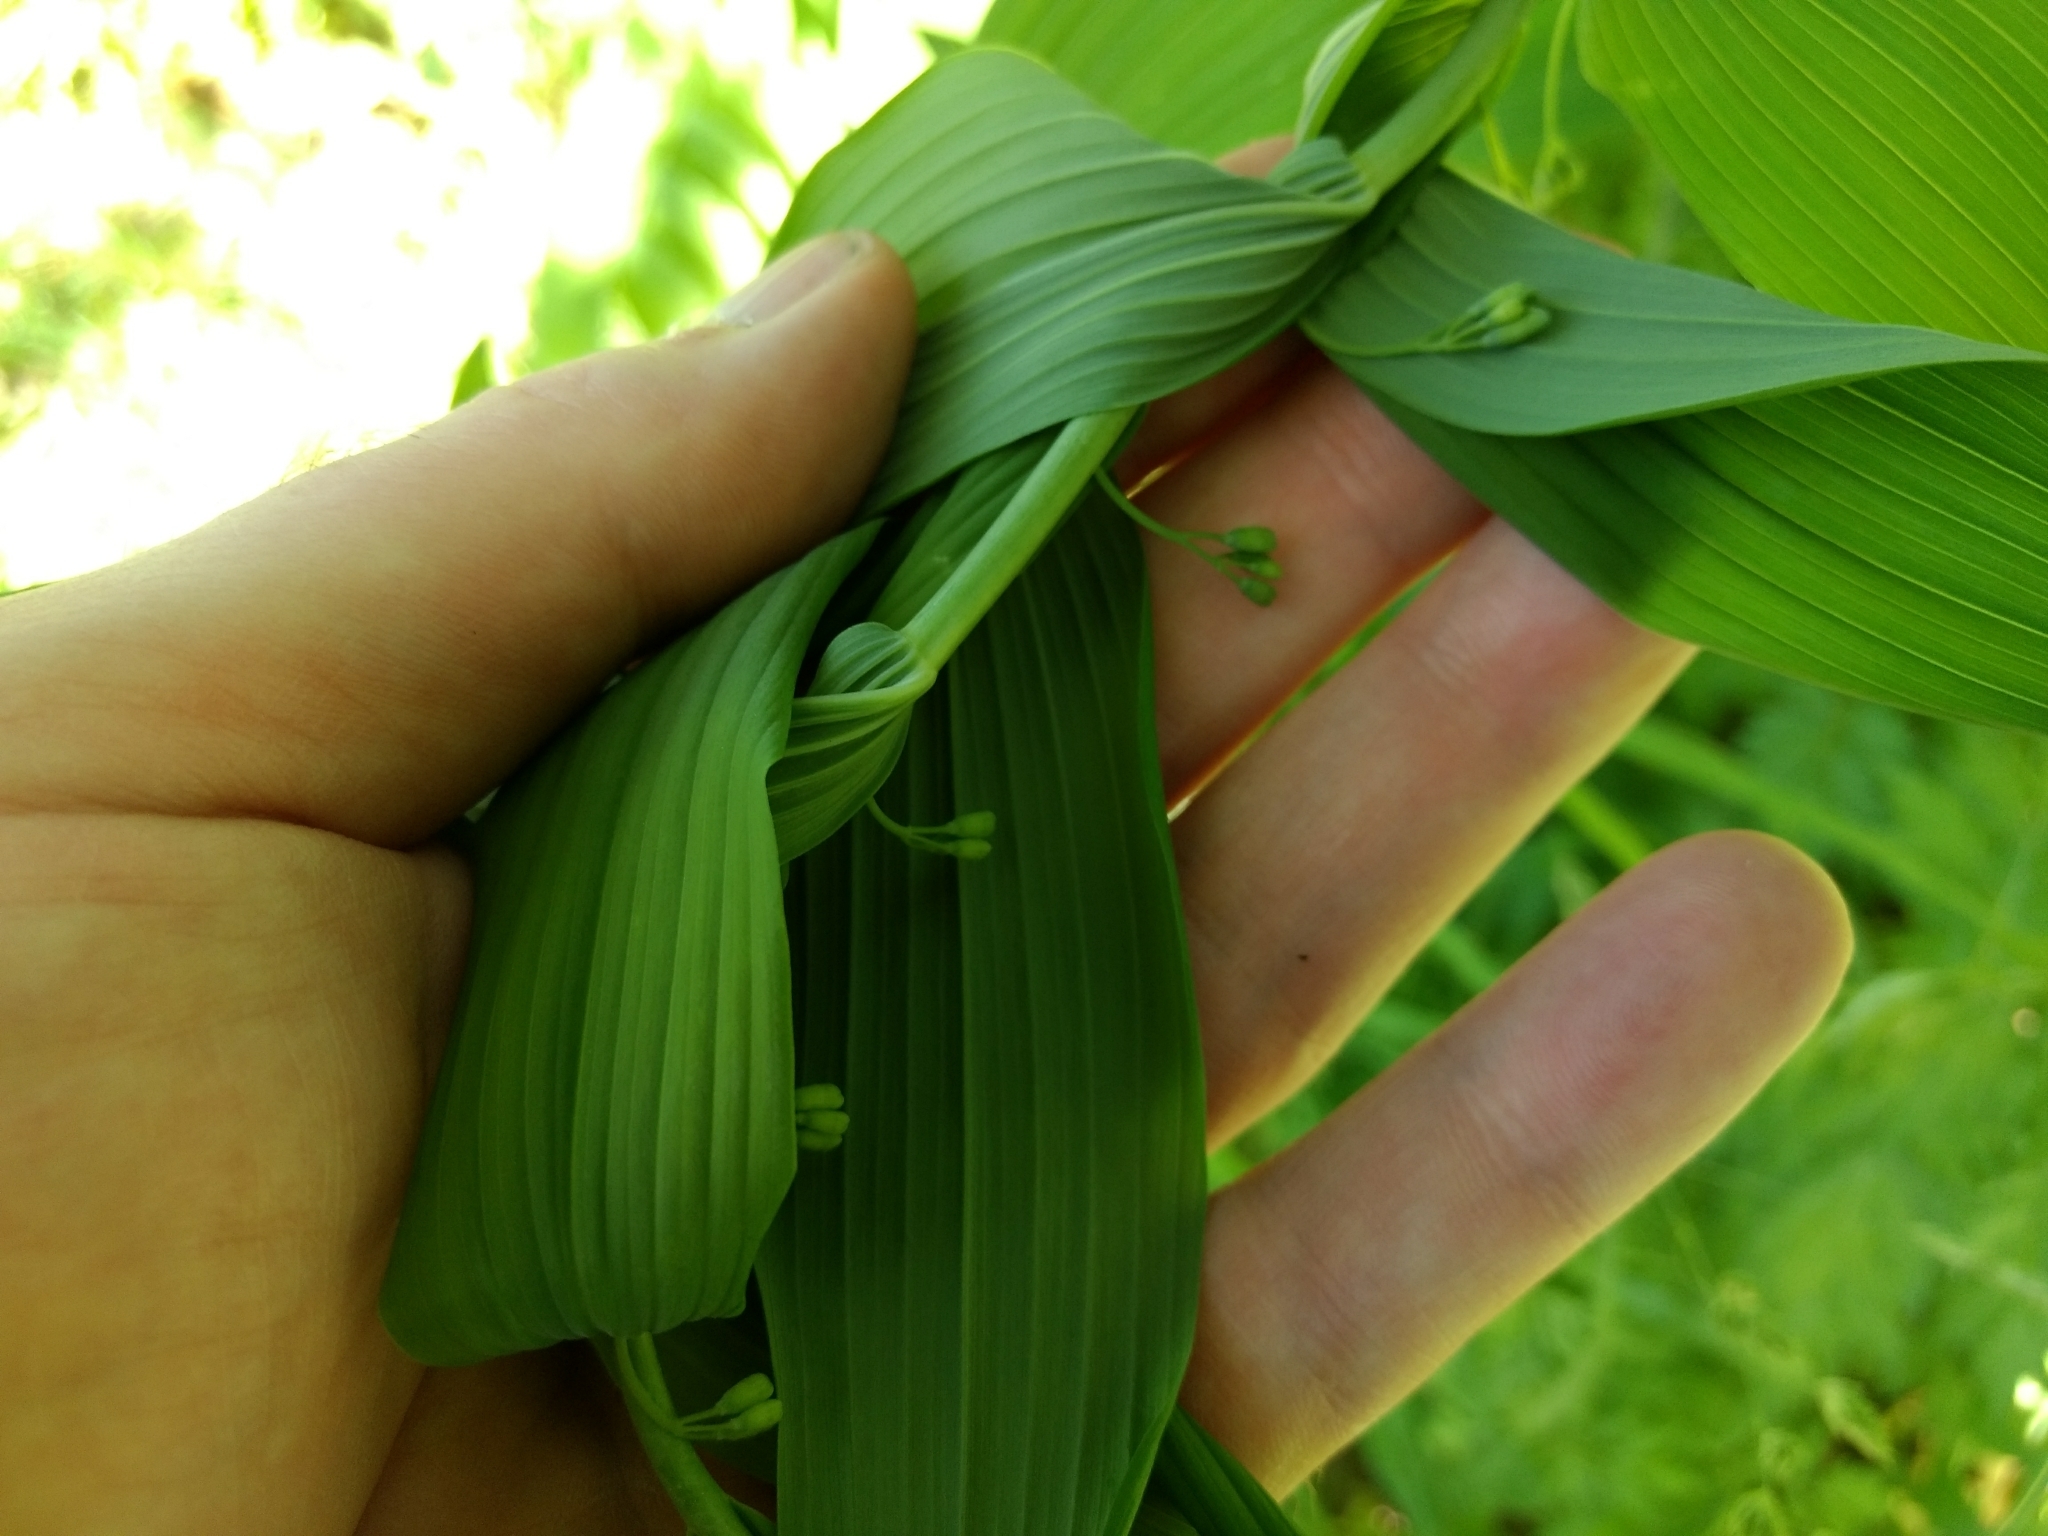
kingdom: Plantae
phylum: Tracheophyta
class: Liliopsida
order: Asparagales
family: Asparagaceae
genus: Polygonatum
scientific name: Polygonatum biflorum
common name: American solomon's-seal
